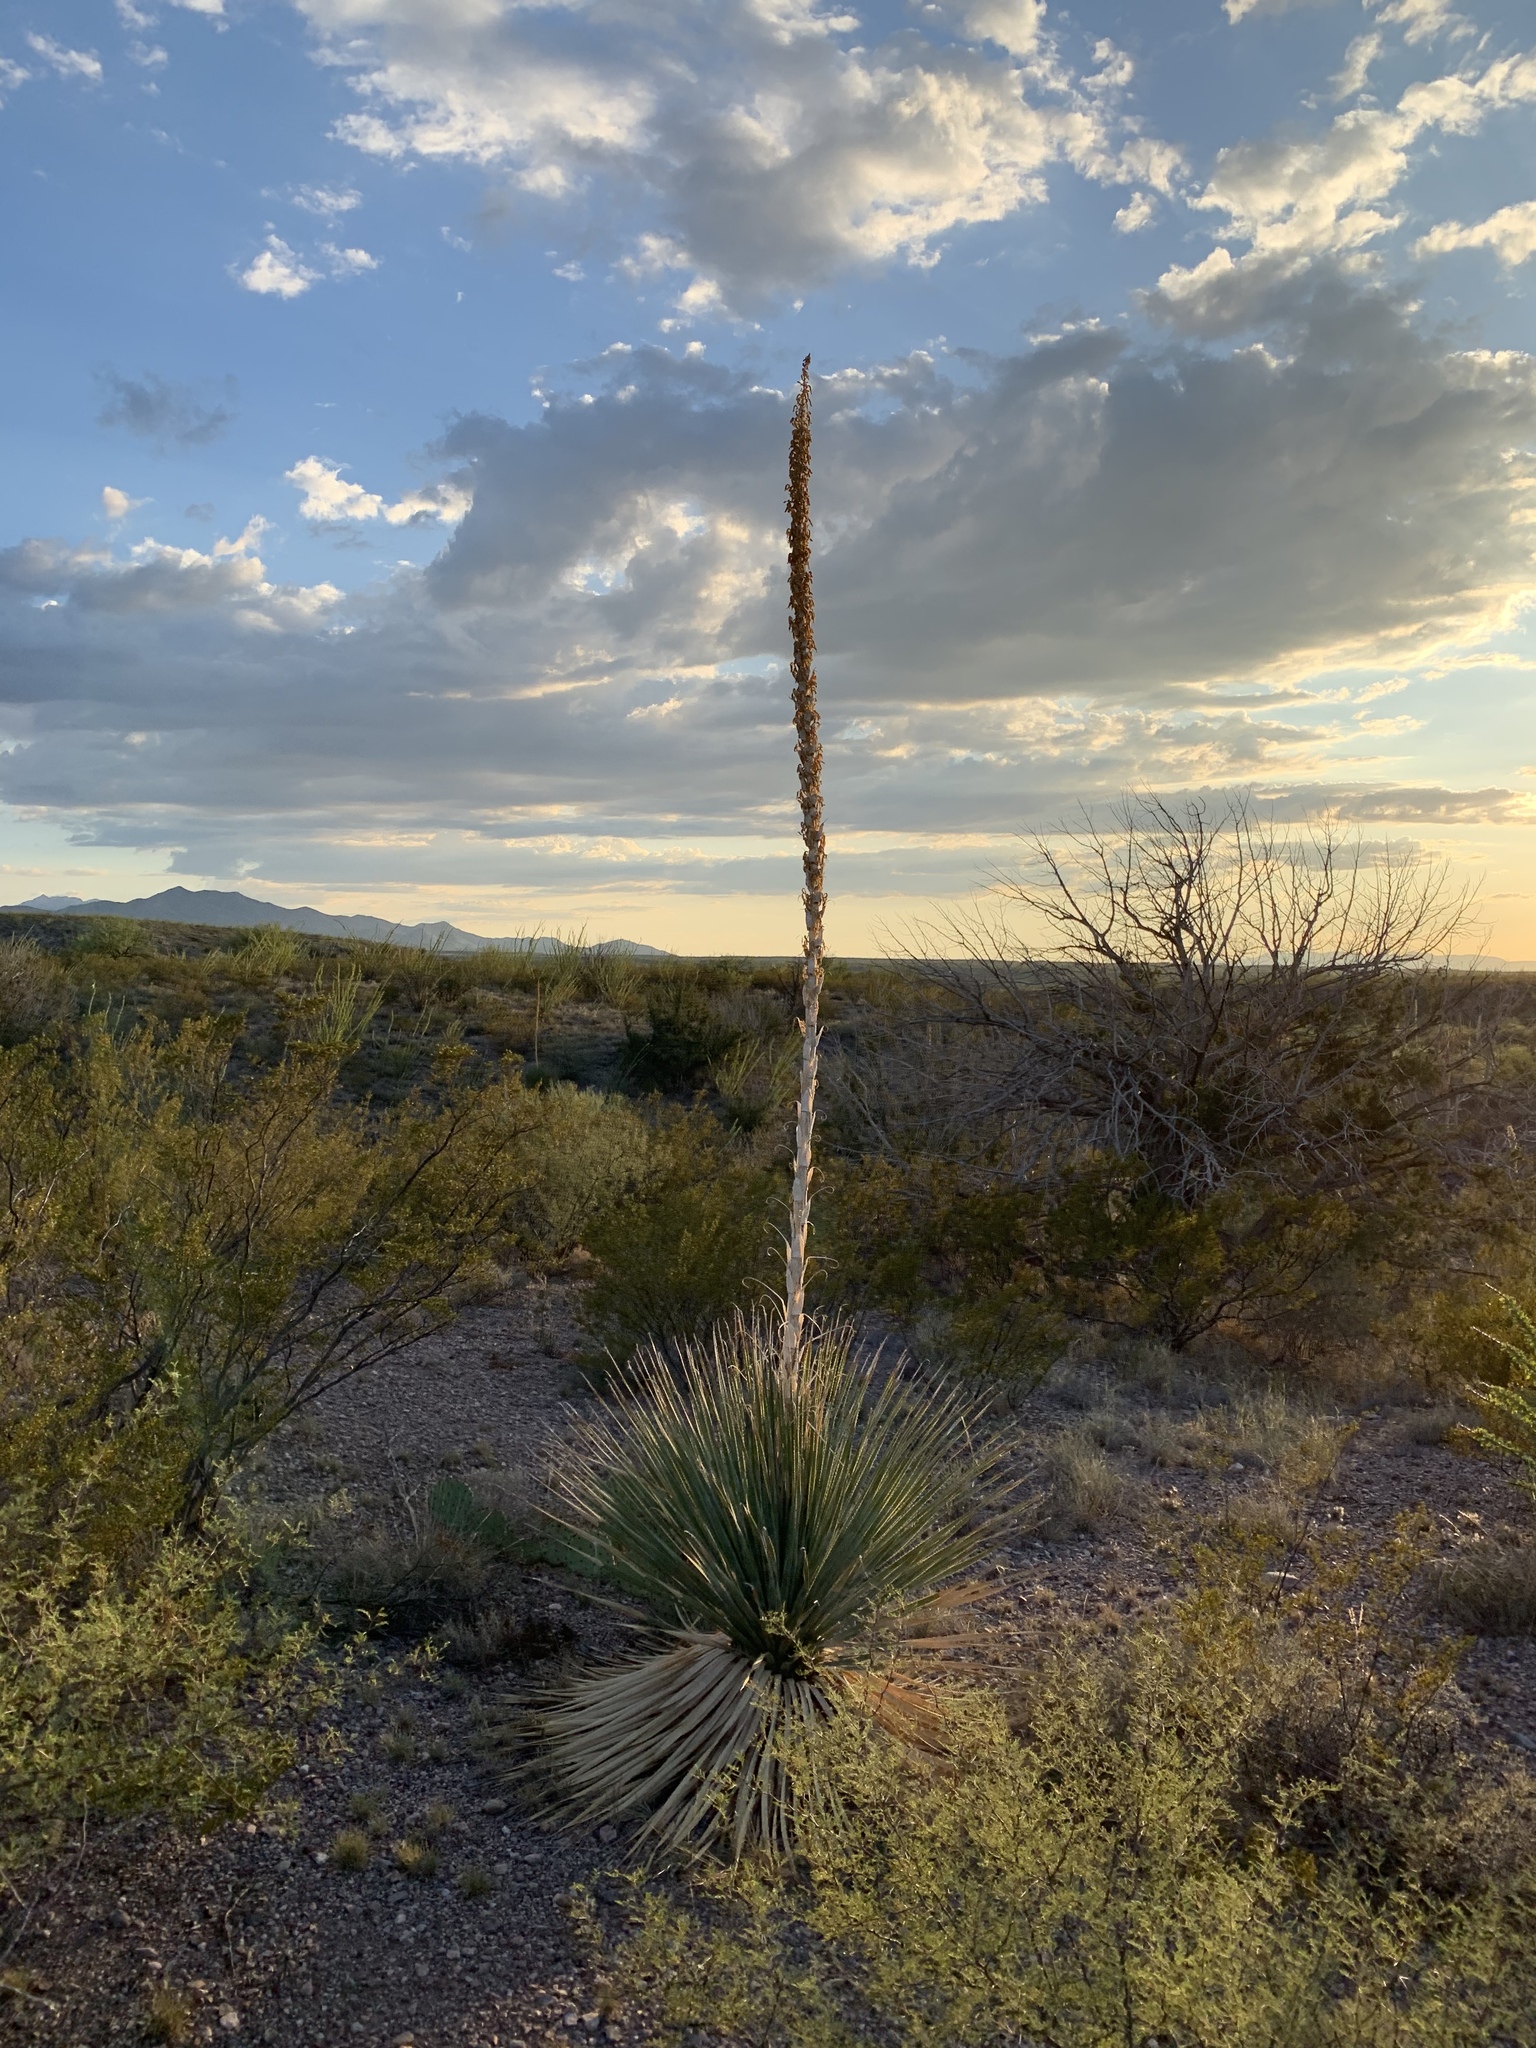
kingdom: Plantae
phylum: Tracheophyta
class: Liliopsida
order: Asparagales
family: Asparagaceae
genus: Dasylirion
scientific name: Dasylirion wheeleri
